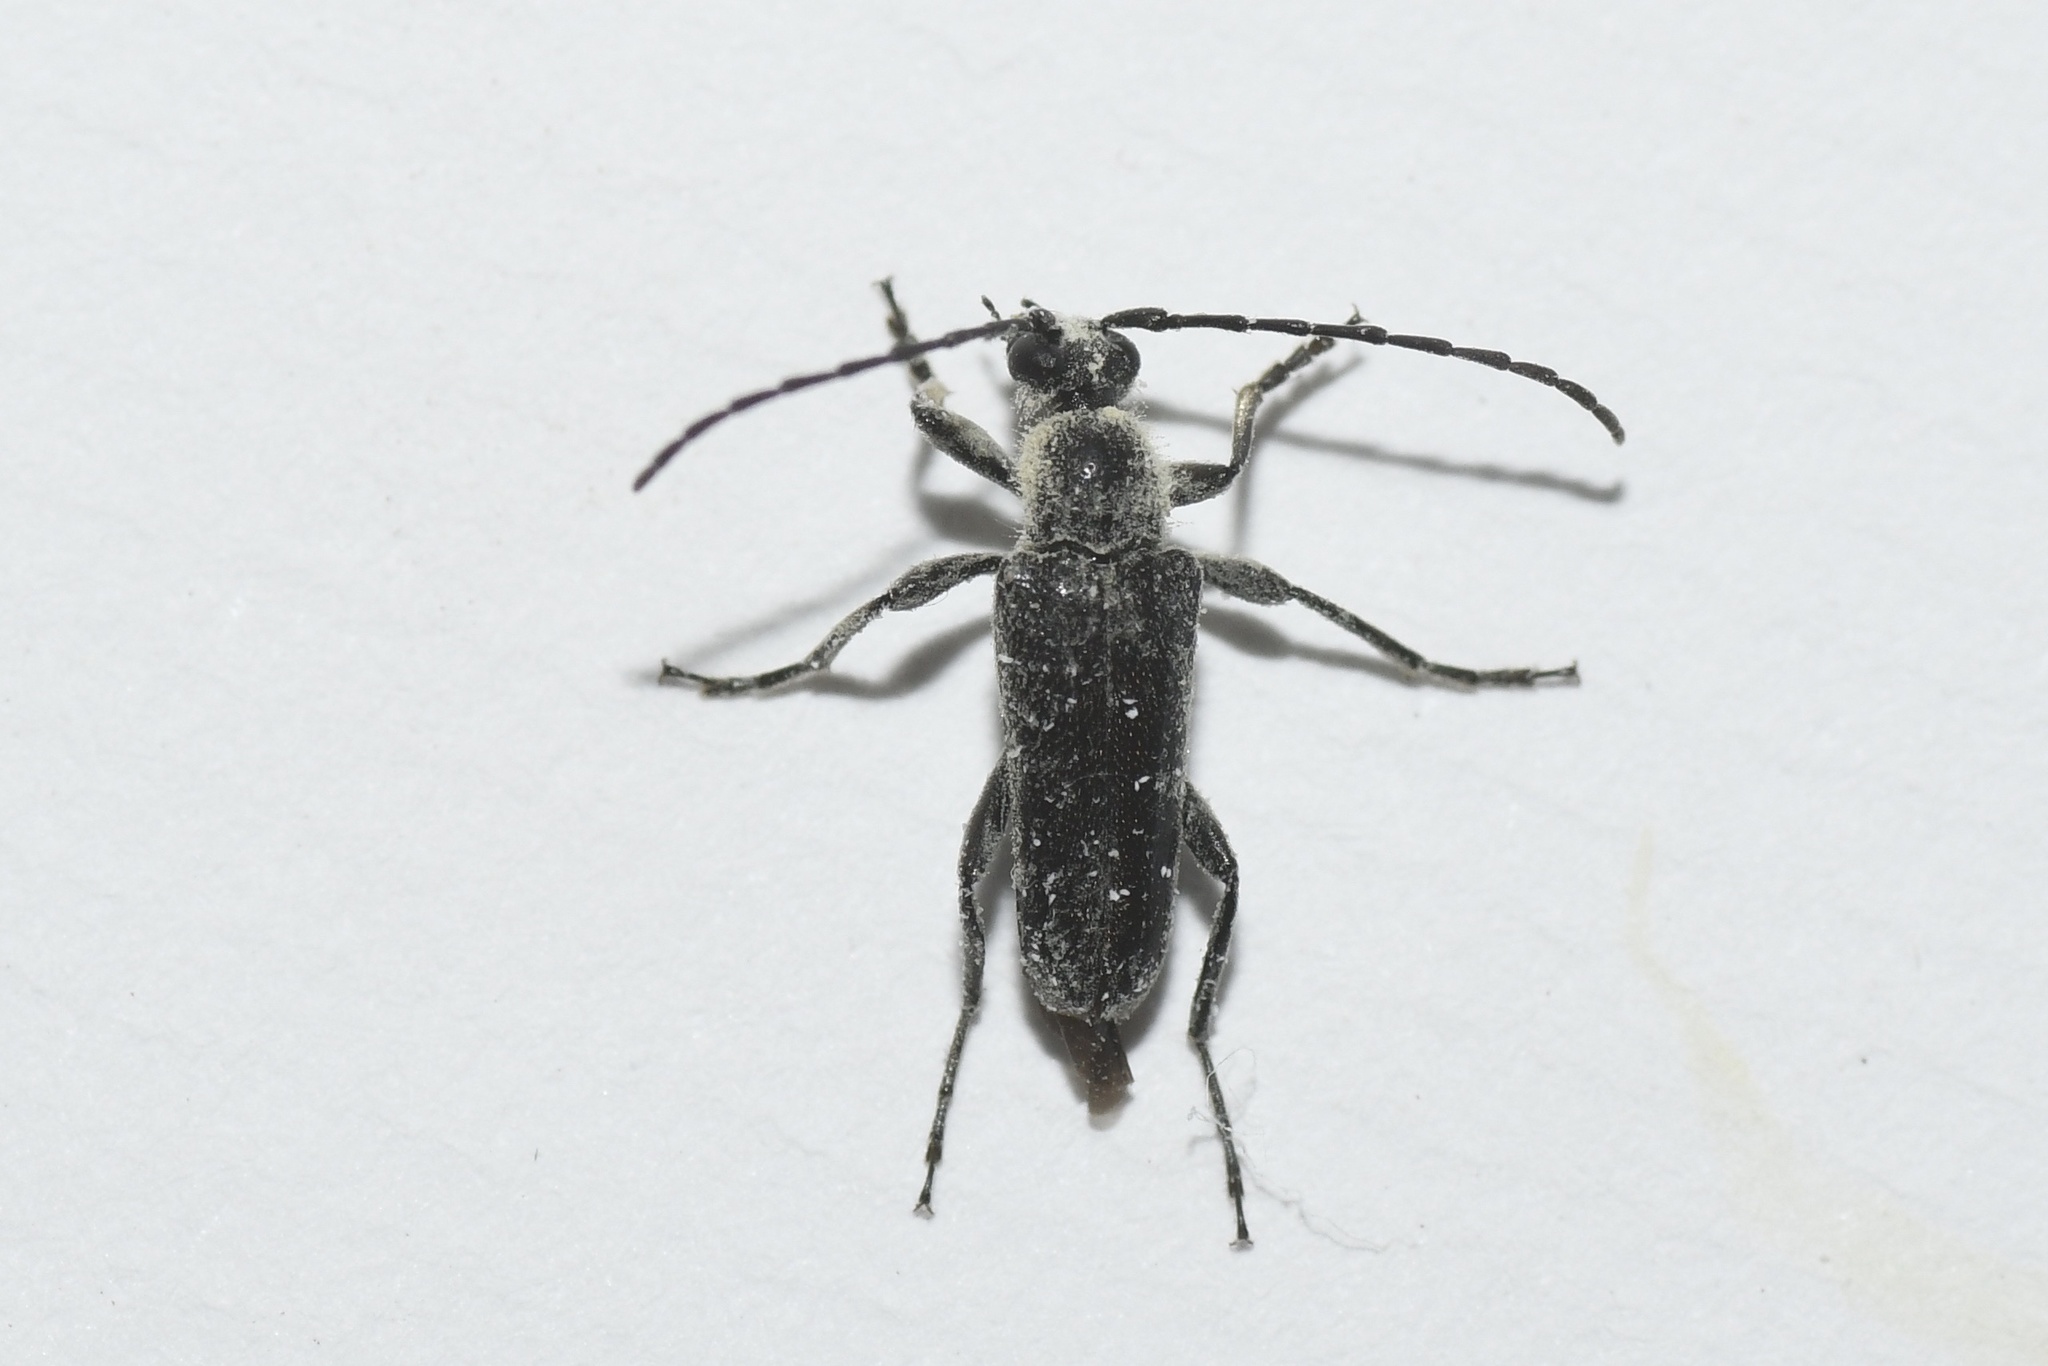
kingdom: Animalia
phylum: Arthropoda
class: Insecta
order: Coleoptera
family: Cerambycidae
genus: Anoplodera
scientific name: Anoplodera pubera
